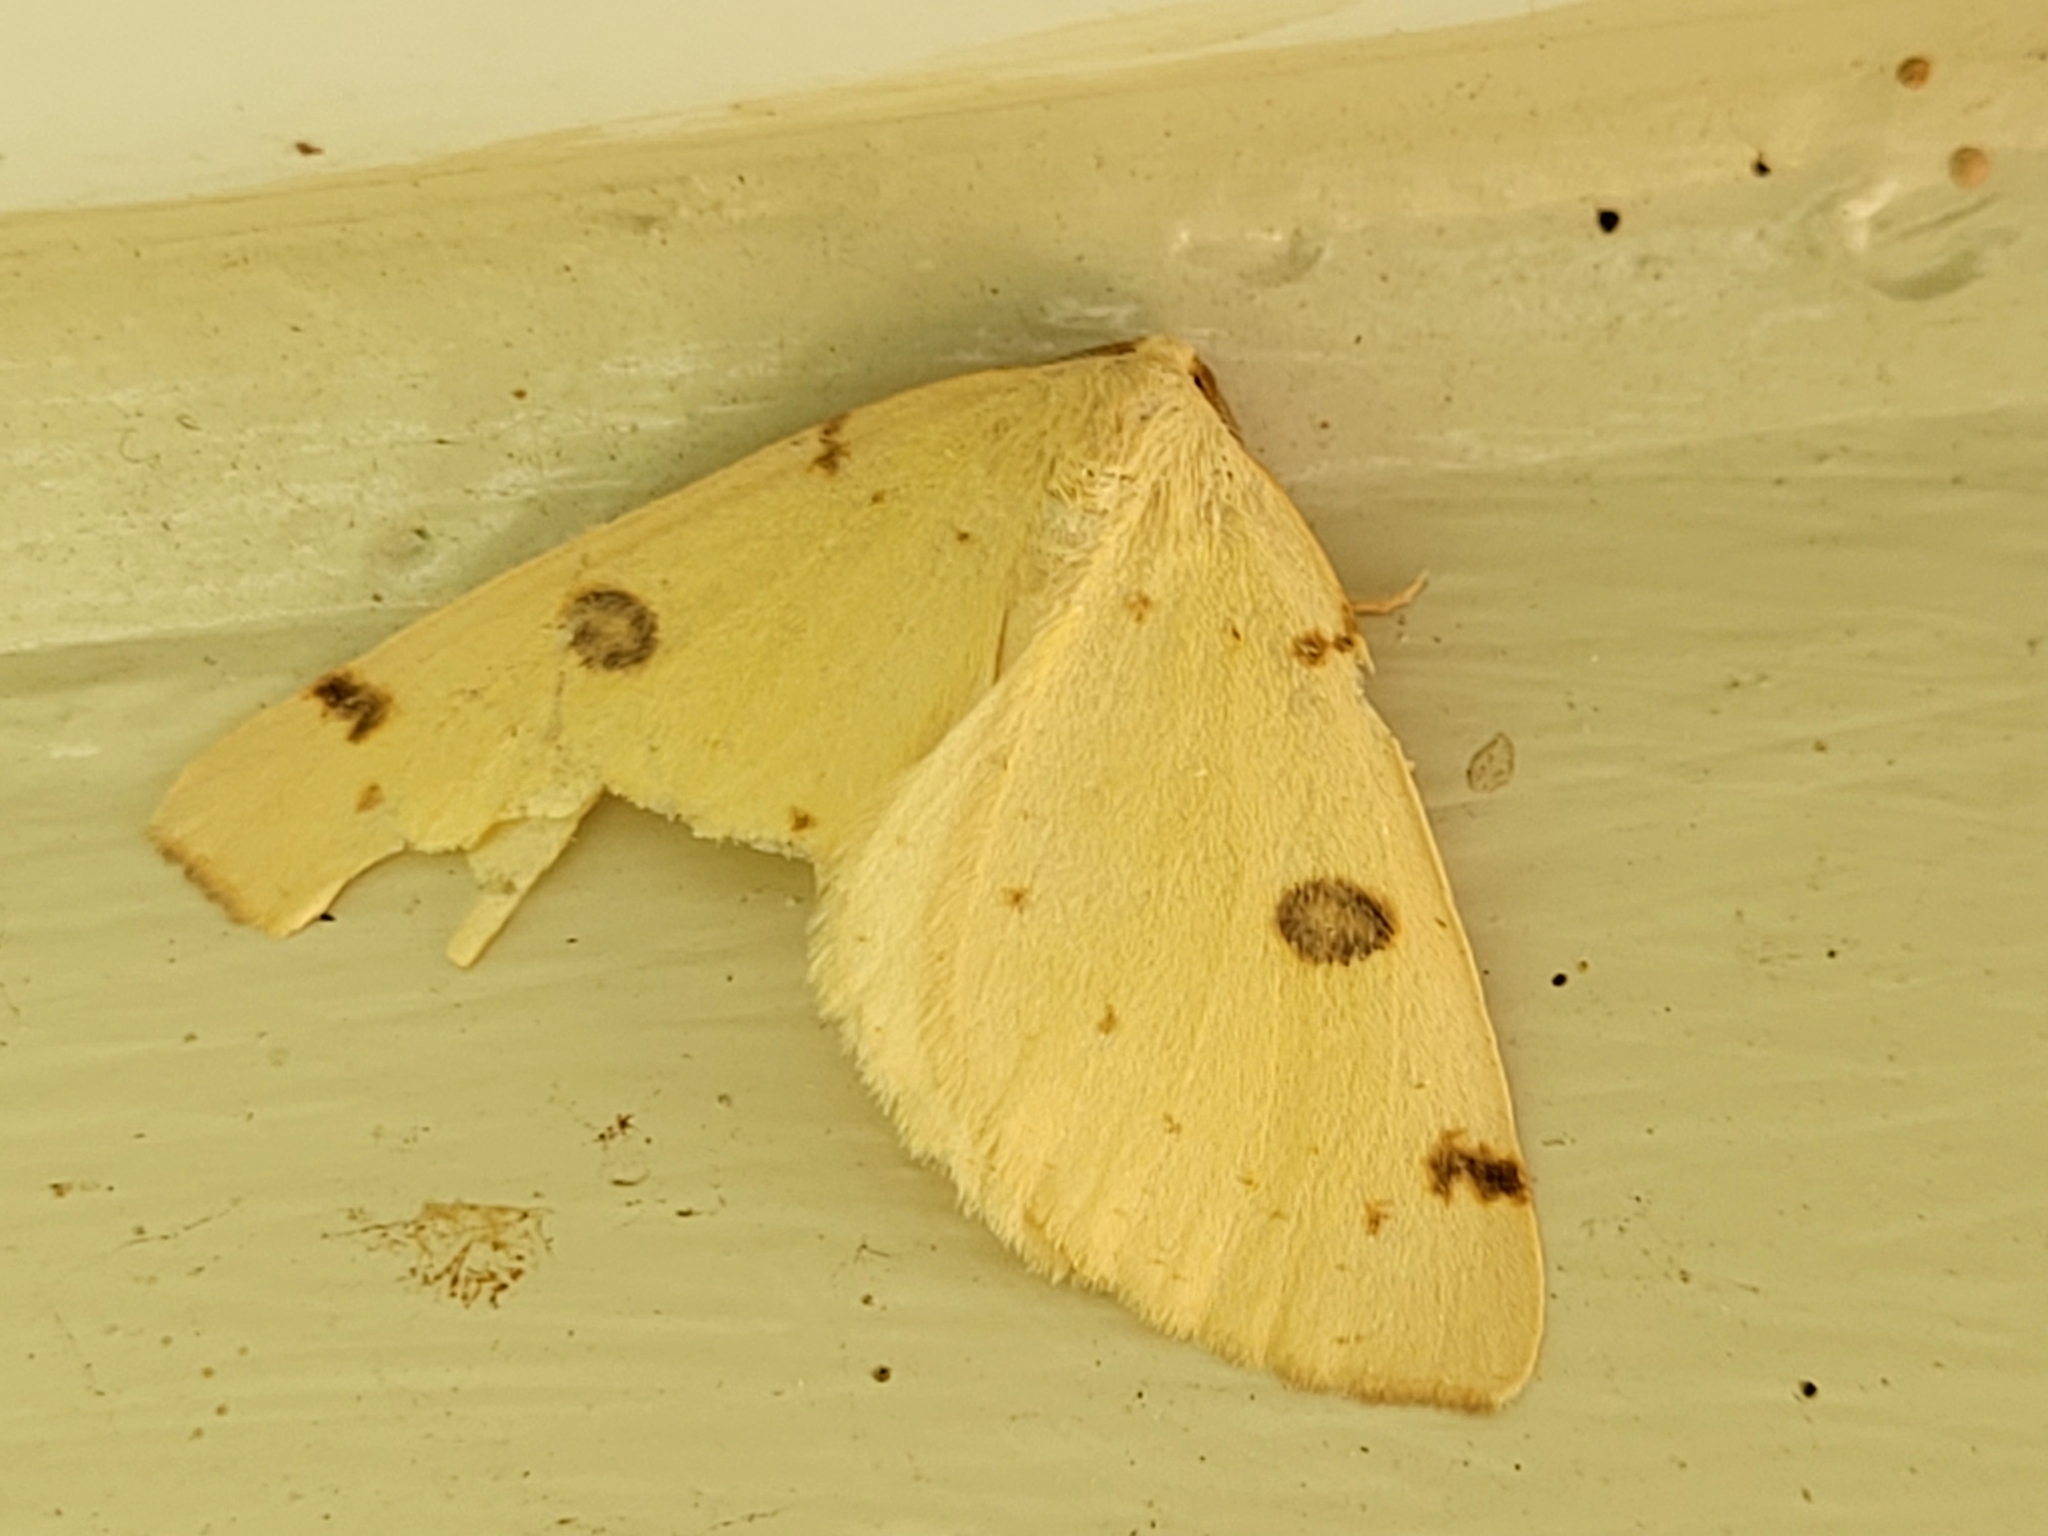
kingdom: Animalia
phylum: Arthropoda
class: Insecta
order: Lepidoptera
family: Geometridae
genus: Hesperumia
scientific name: Hesperumia sulphuraria
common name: Sulphur moth
